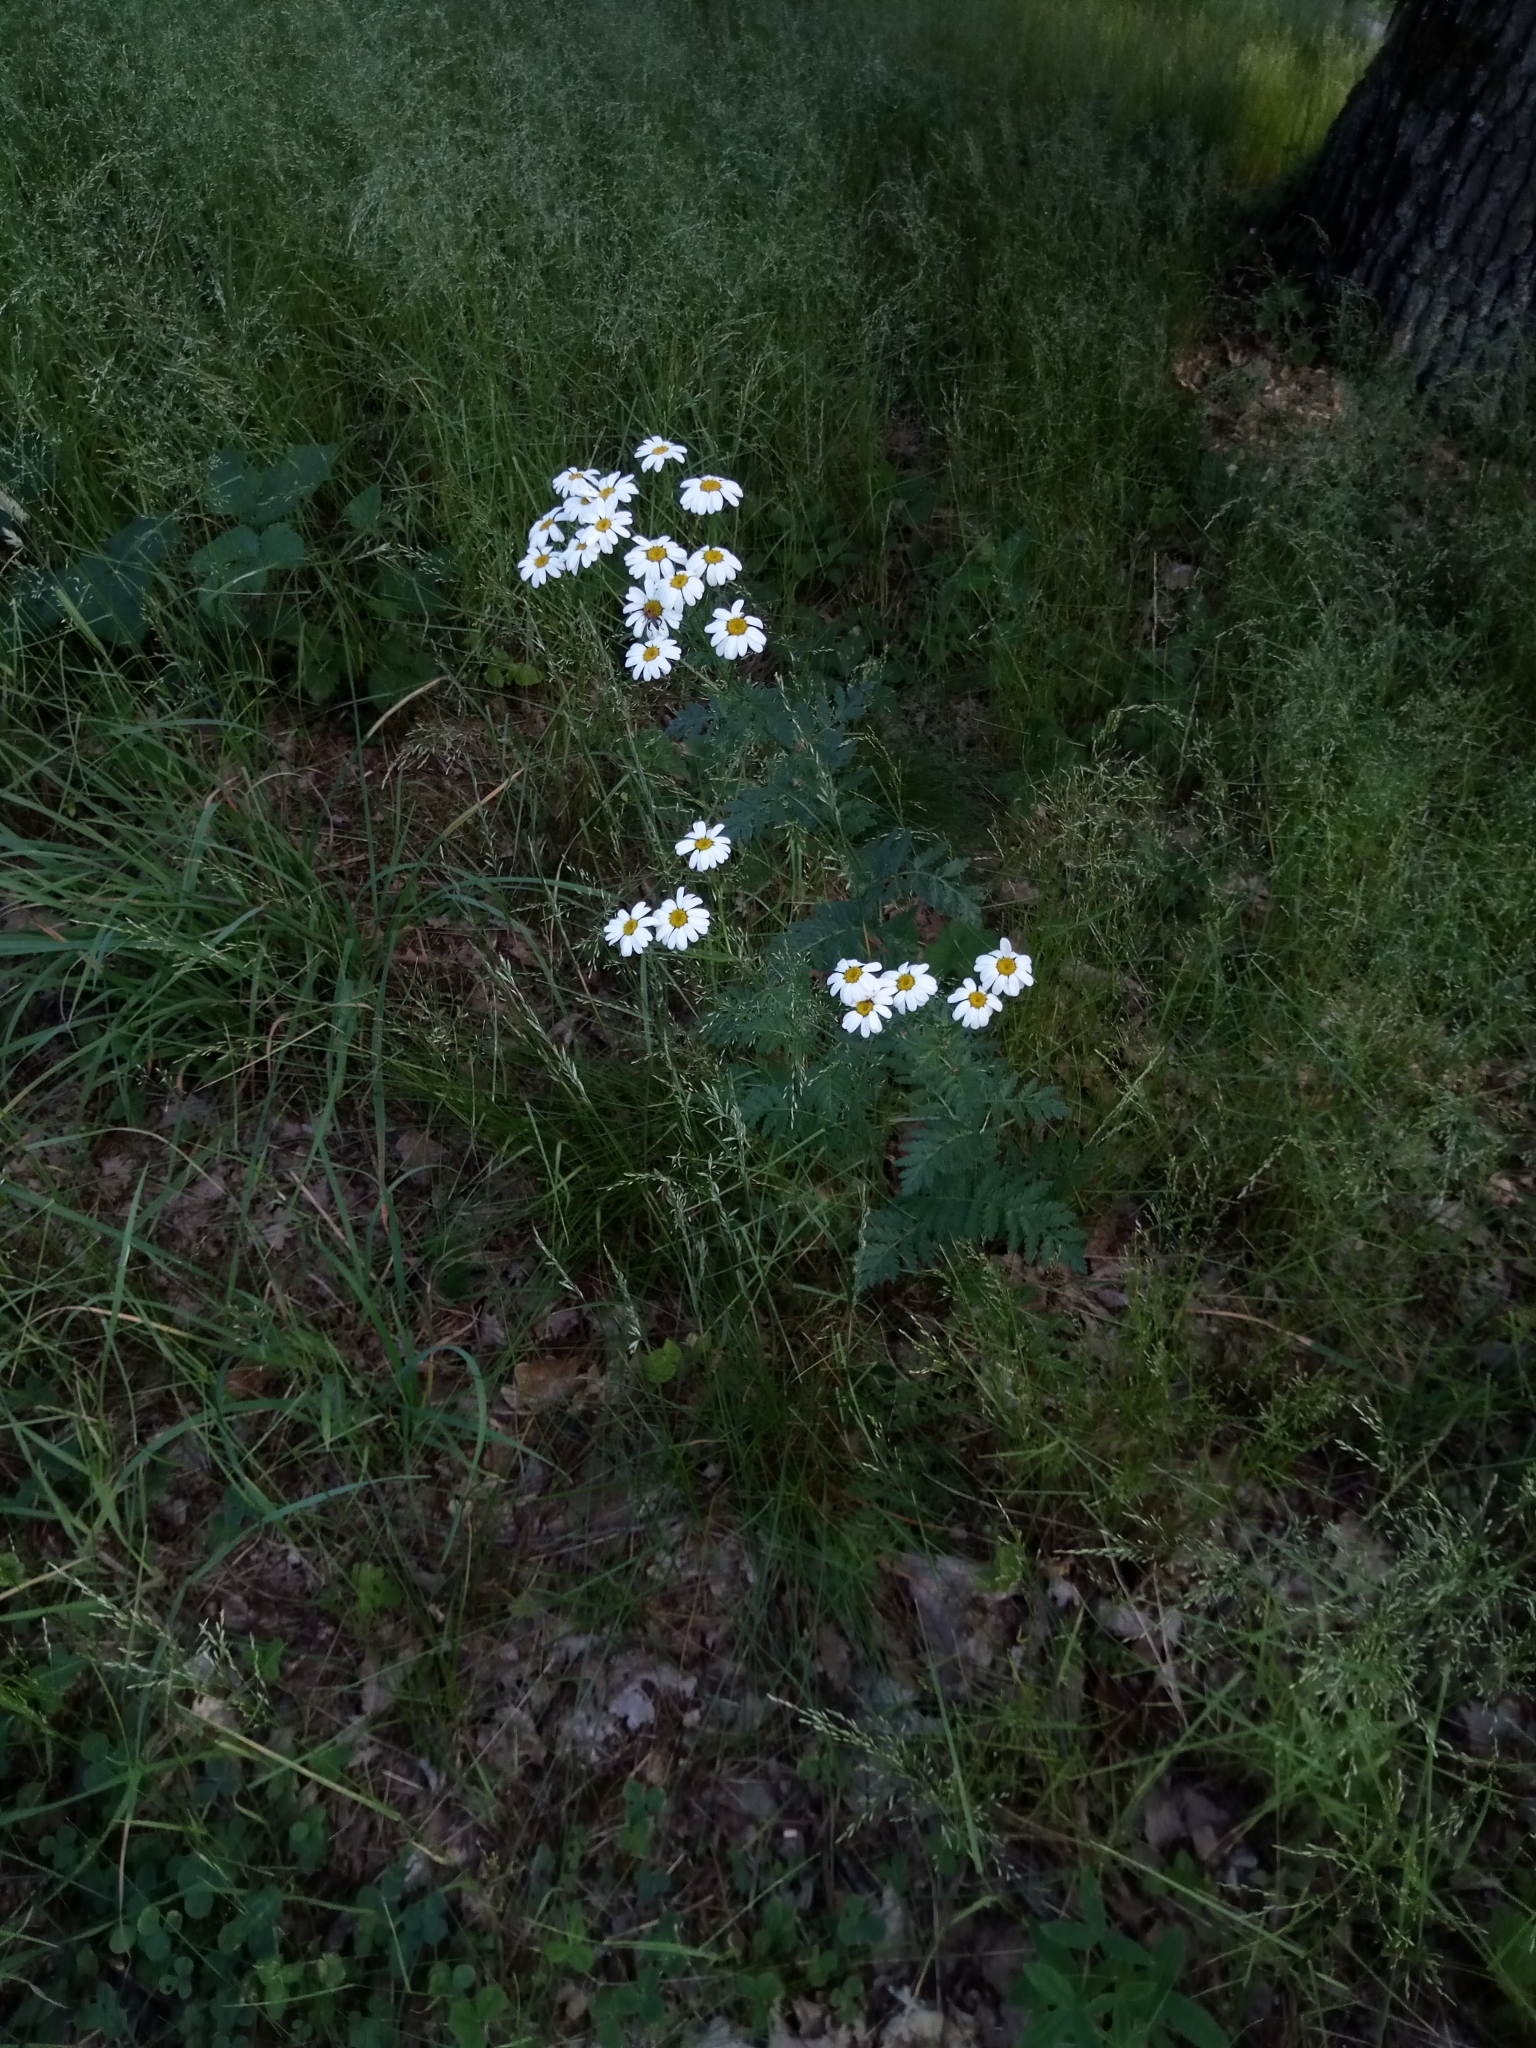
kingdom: Plantae
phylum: Tracheophyta
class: Magnoliopsida
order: Asterales
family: Asteraceae
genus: Tanacetum
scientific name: Tanacetum corymbosum
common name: Scentless feverfew
